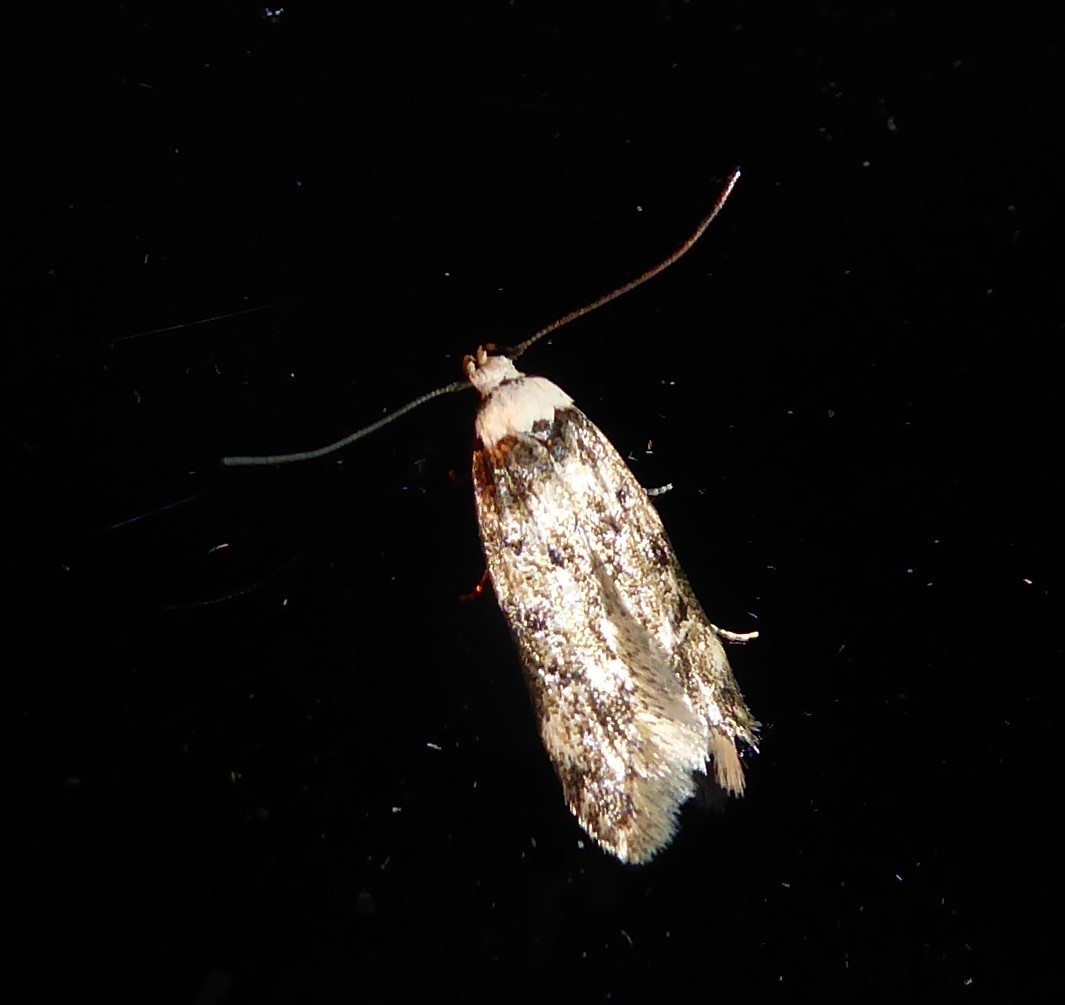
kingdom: Animalia
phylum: Arthropoda
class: Insecta
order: Lepidoptera
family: Oecophoridae
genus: Endrosis
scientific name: Endrosis sarcitrella
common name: White-shouldered house moth
